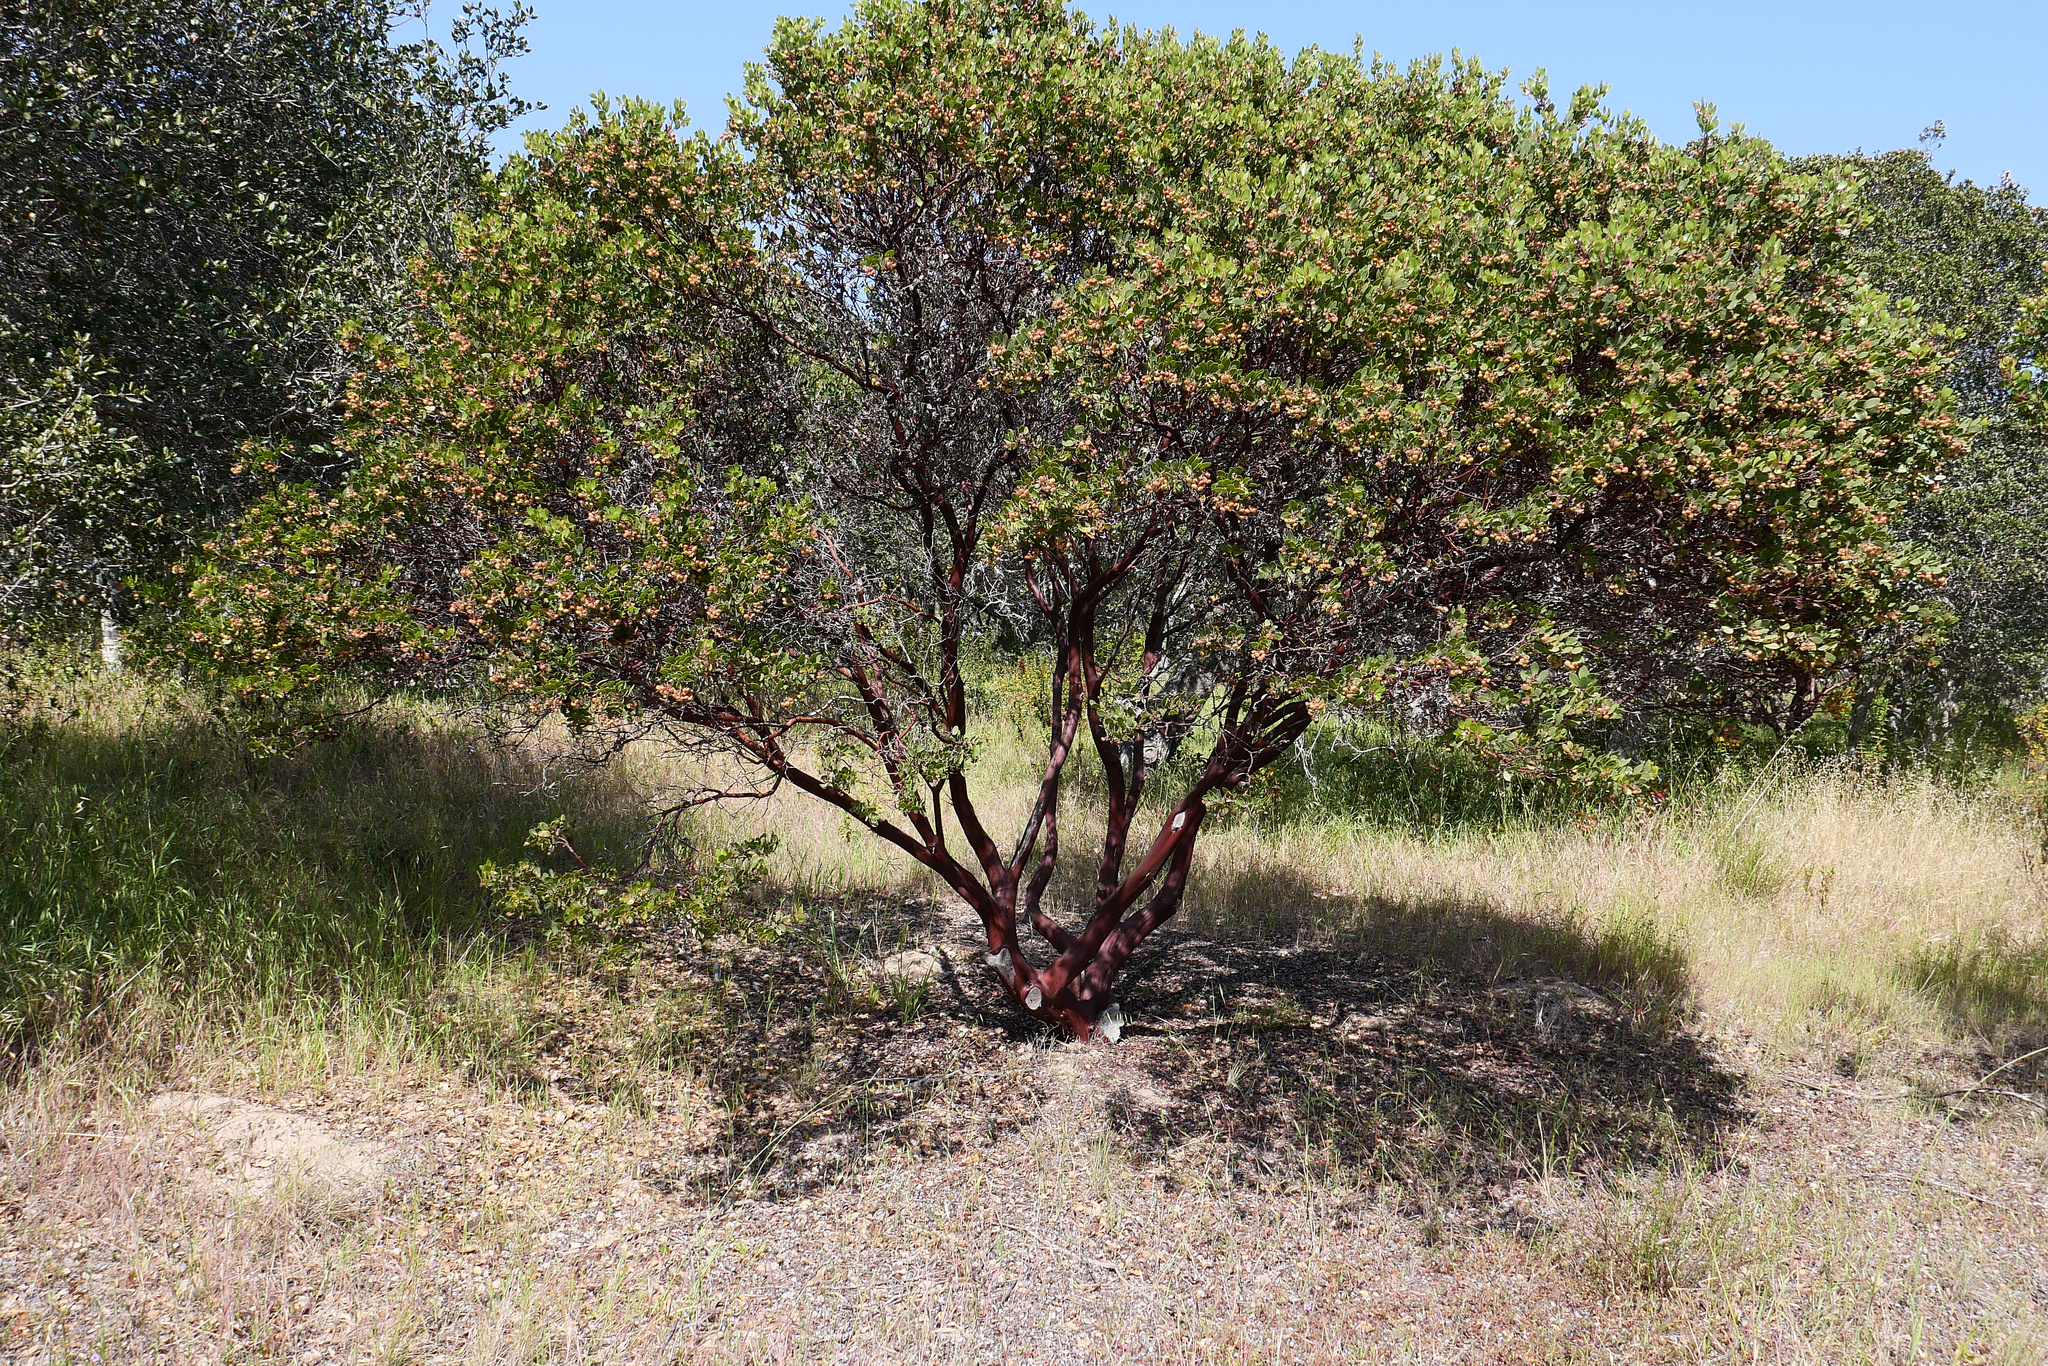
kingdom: Plantae
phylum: Tracheophyta
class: Magnoliopsida
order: Ericales
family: Ericaceae
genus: Arctostaphylos
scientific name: Arctostaphylos montereyensis
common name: Monterey manzanita
